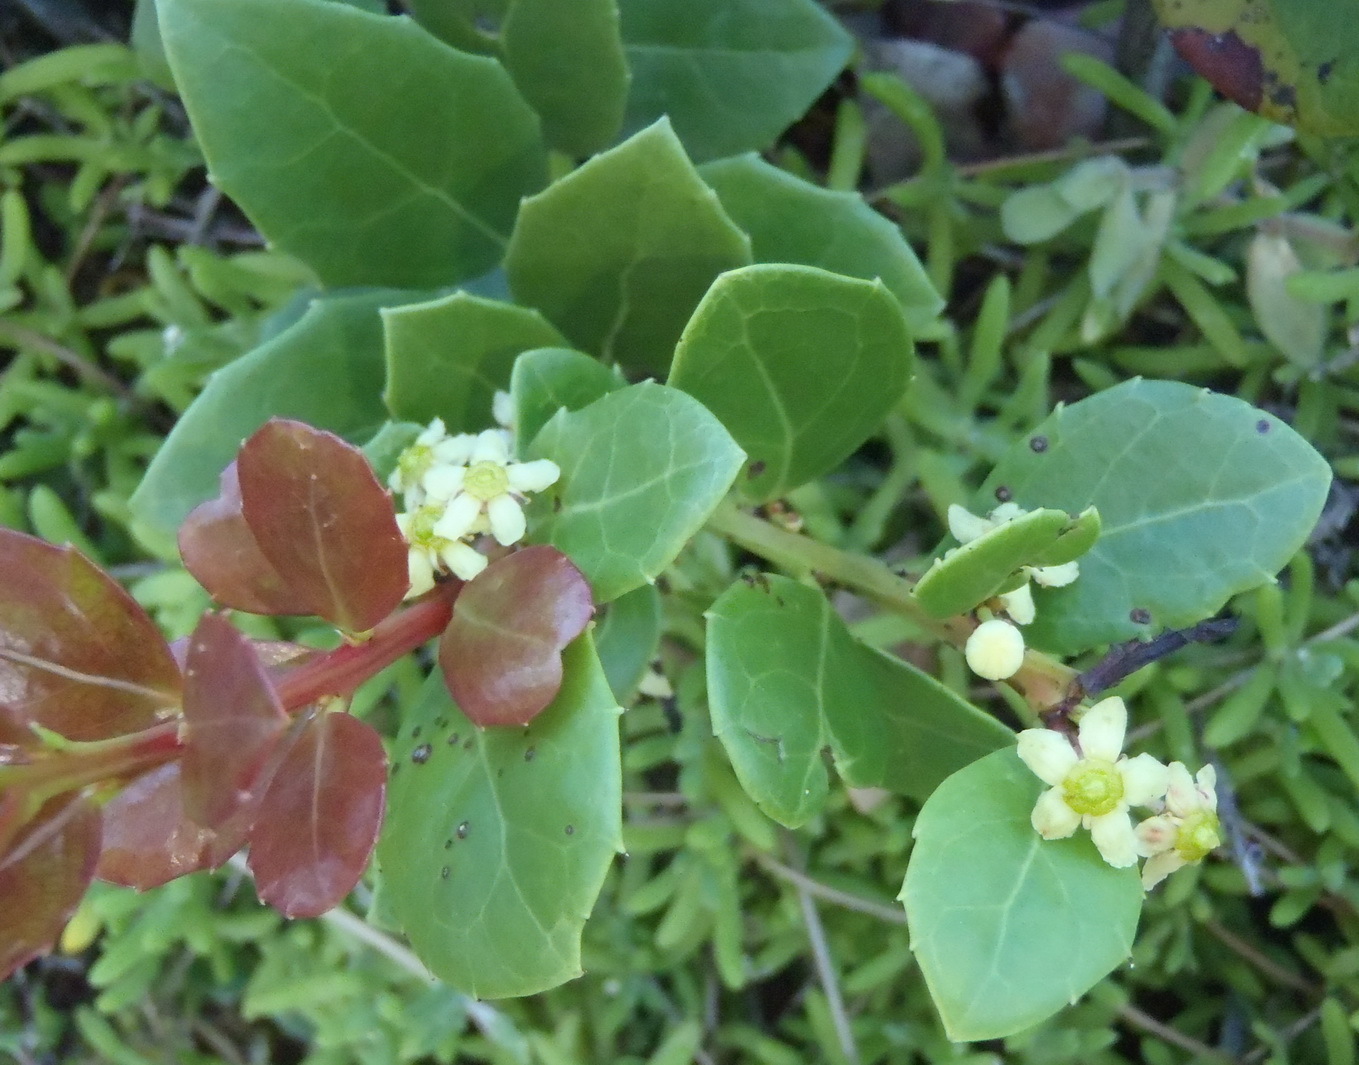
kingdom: Plantae
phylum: Tracheophyta
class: Magnoliopsida
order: Celastrales
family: Celastraceae
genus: Gymnosporia
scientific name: Gymnosporia procumbens
